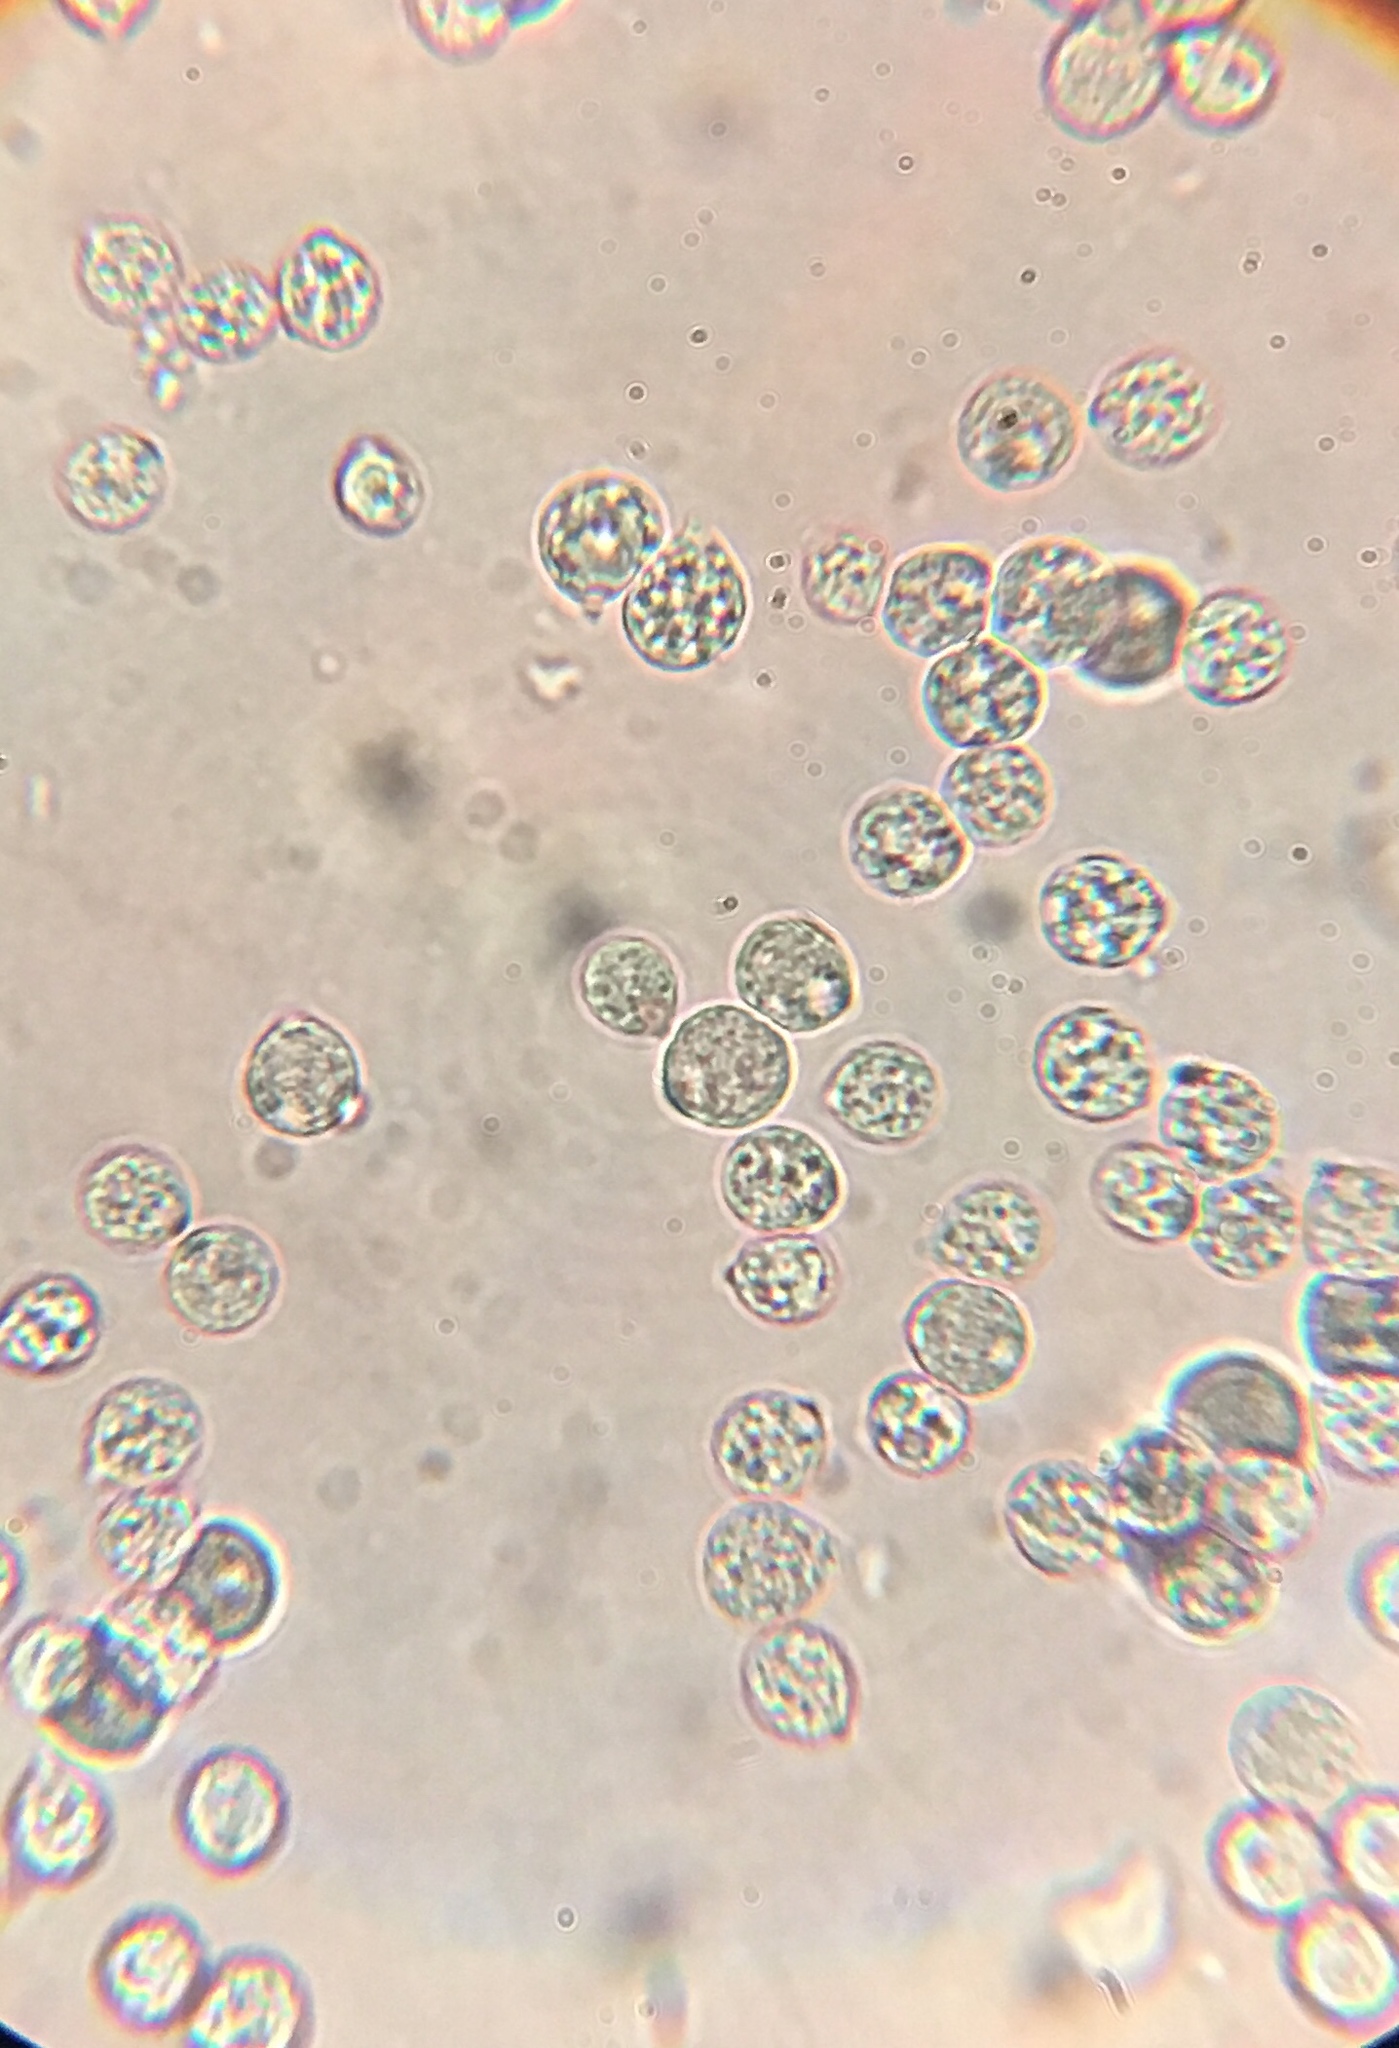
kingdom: Fungi
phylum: Basidiomycota
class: Agaricomycetes
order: Agaricales
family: Amanitaceae
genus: Amanita
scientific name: Amanita aestivalis
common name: White american star-footed amanita
